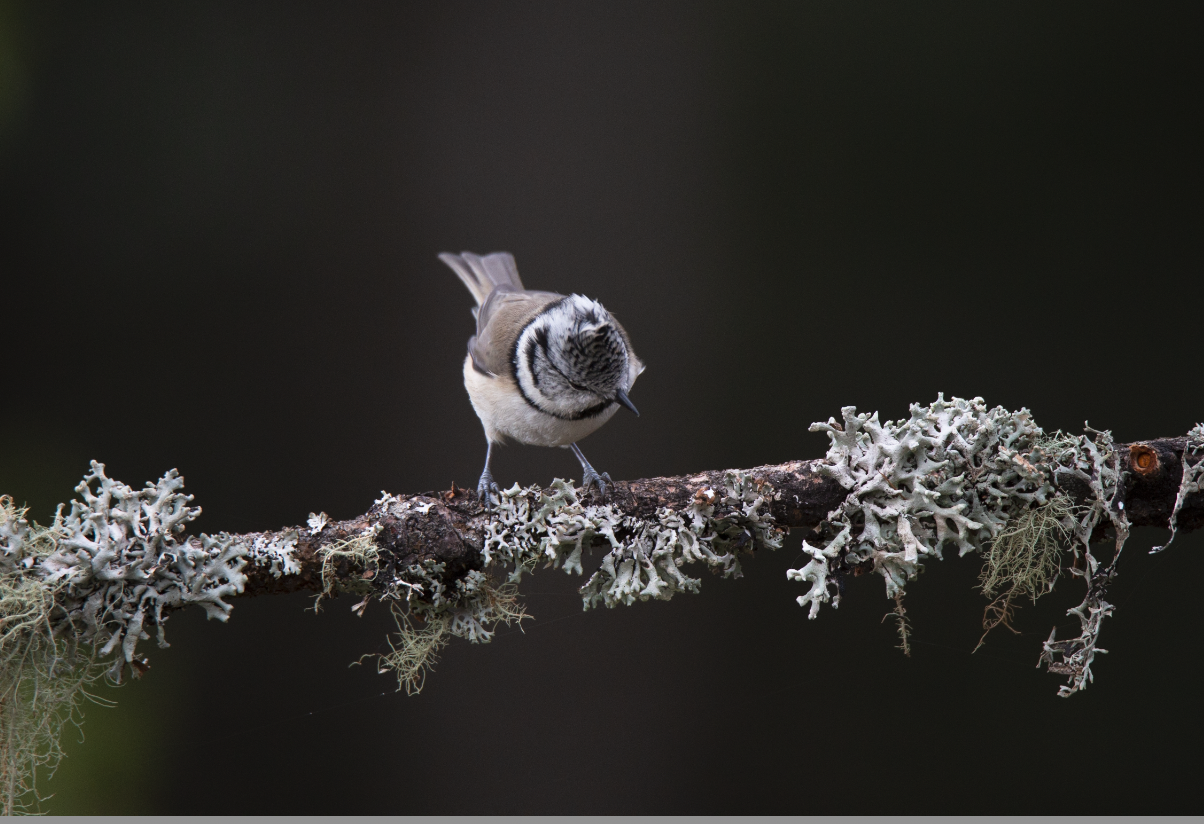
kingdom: Animalia
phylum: Chordata
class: Aves
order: Passeriformes
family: Paridae
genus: Lophophanes
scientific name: Lophophanes cristatus
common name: European crested tit
